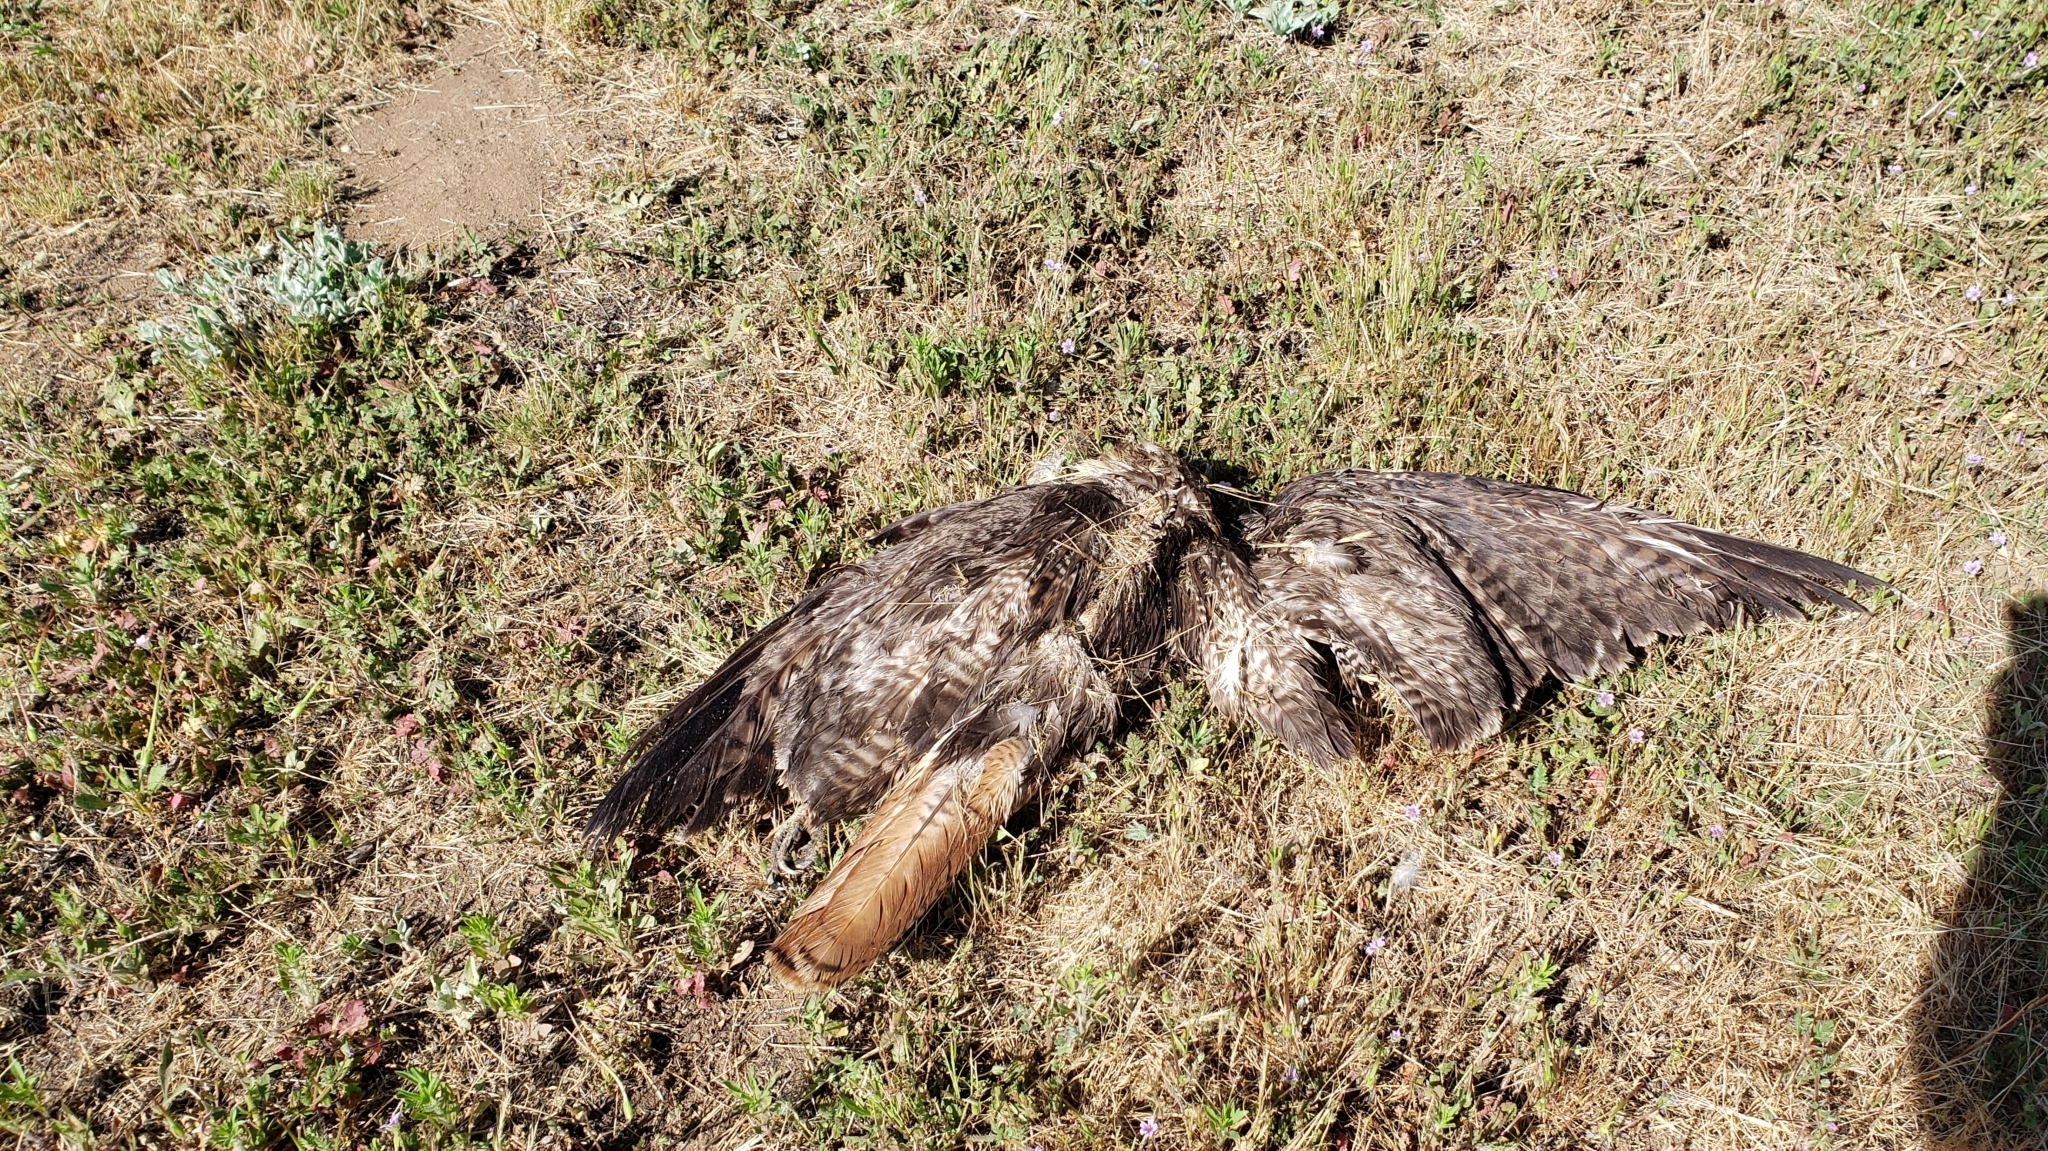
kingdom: Animalia
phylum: Chordata
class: Aves
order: Accipitriformes
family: Accipitridae
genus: Buteo
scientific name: Buteo jamaicensis
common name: Red-tailed hawk
